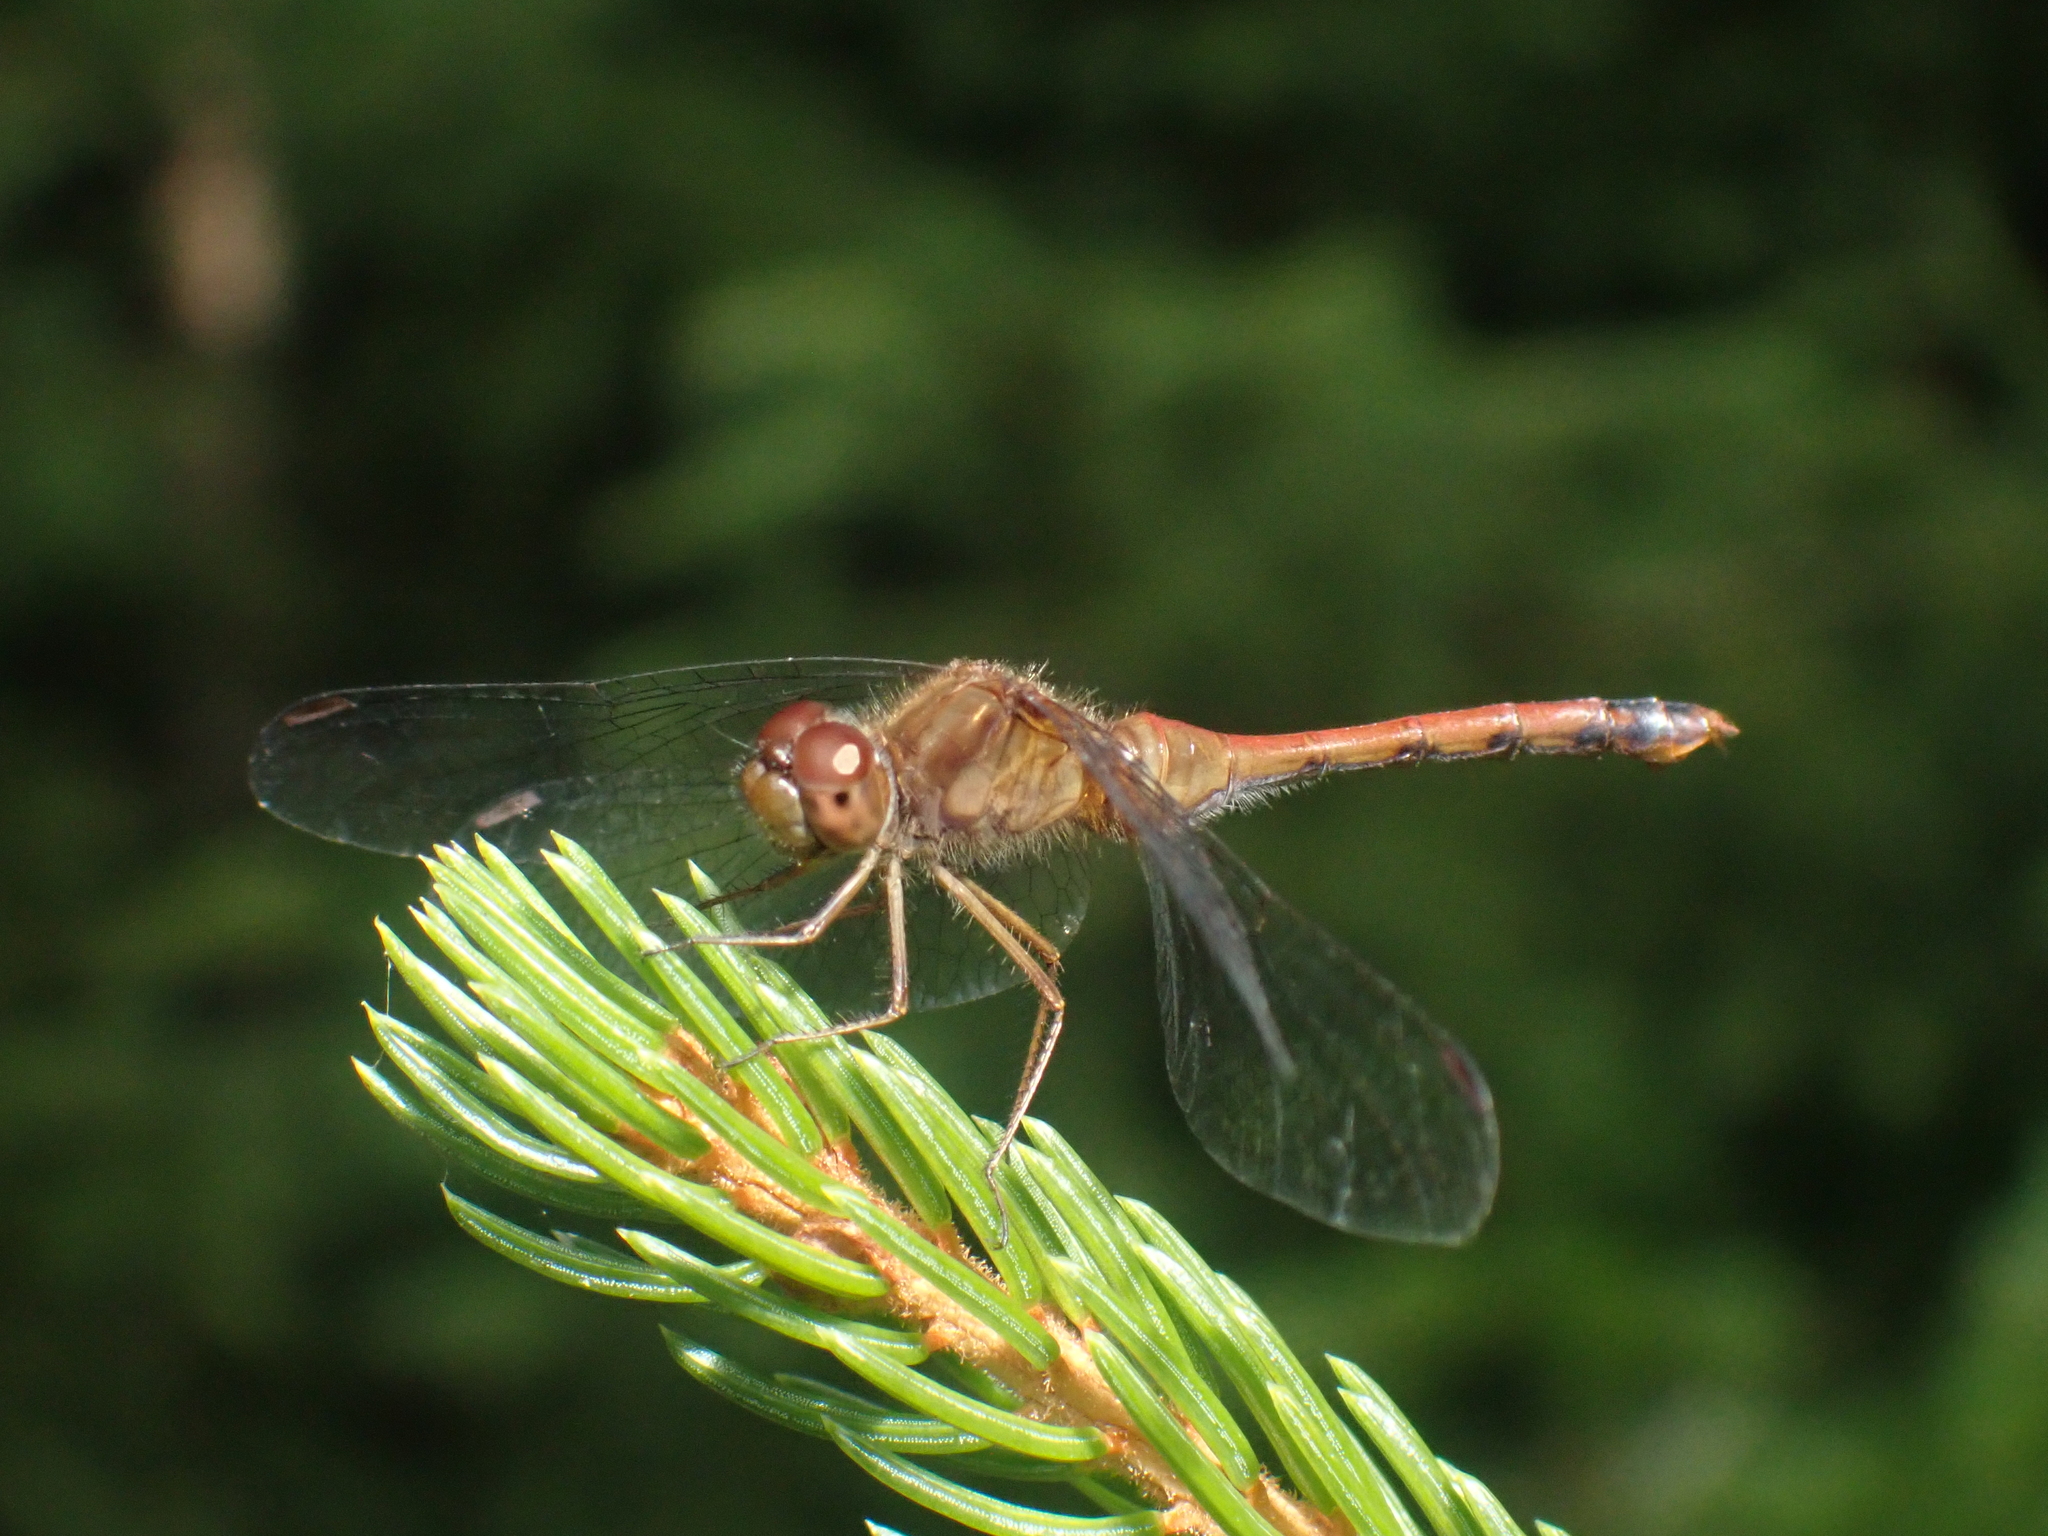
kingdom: Animalia
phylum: Arthropoda
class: Insecta
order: Odonata
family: Libellulidae
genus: Sympetrum
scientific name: Sympetrum vicinum
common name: Autumn meadowhawk
